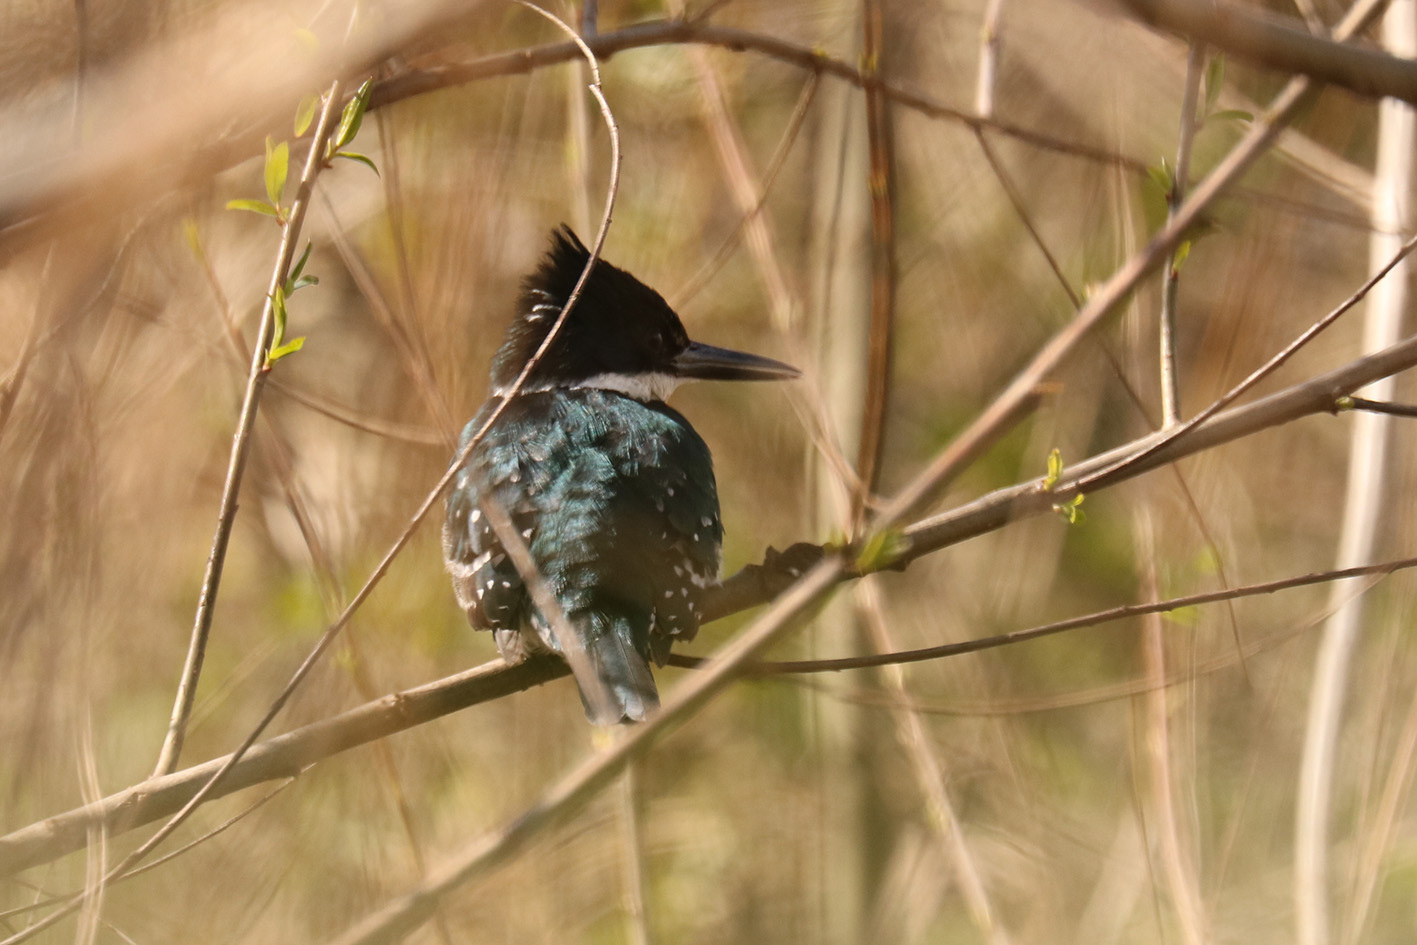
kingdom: Animalia
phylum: Chordata
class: Aves
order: Coraciiformes
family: Alcedinidae
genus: Chloroceryle
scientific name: Chloroceryle americana
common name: Green kingfisher
